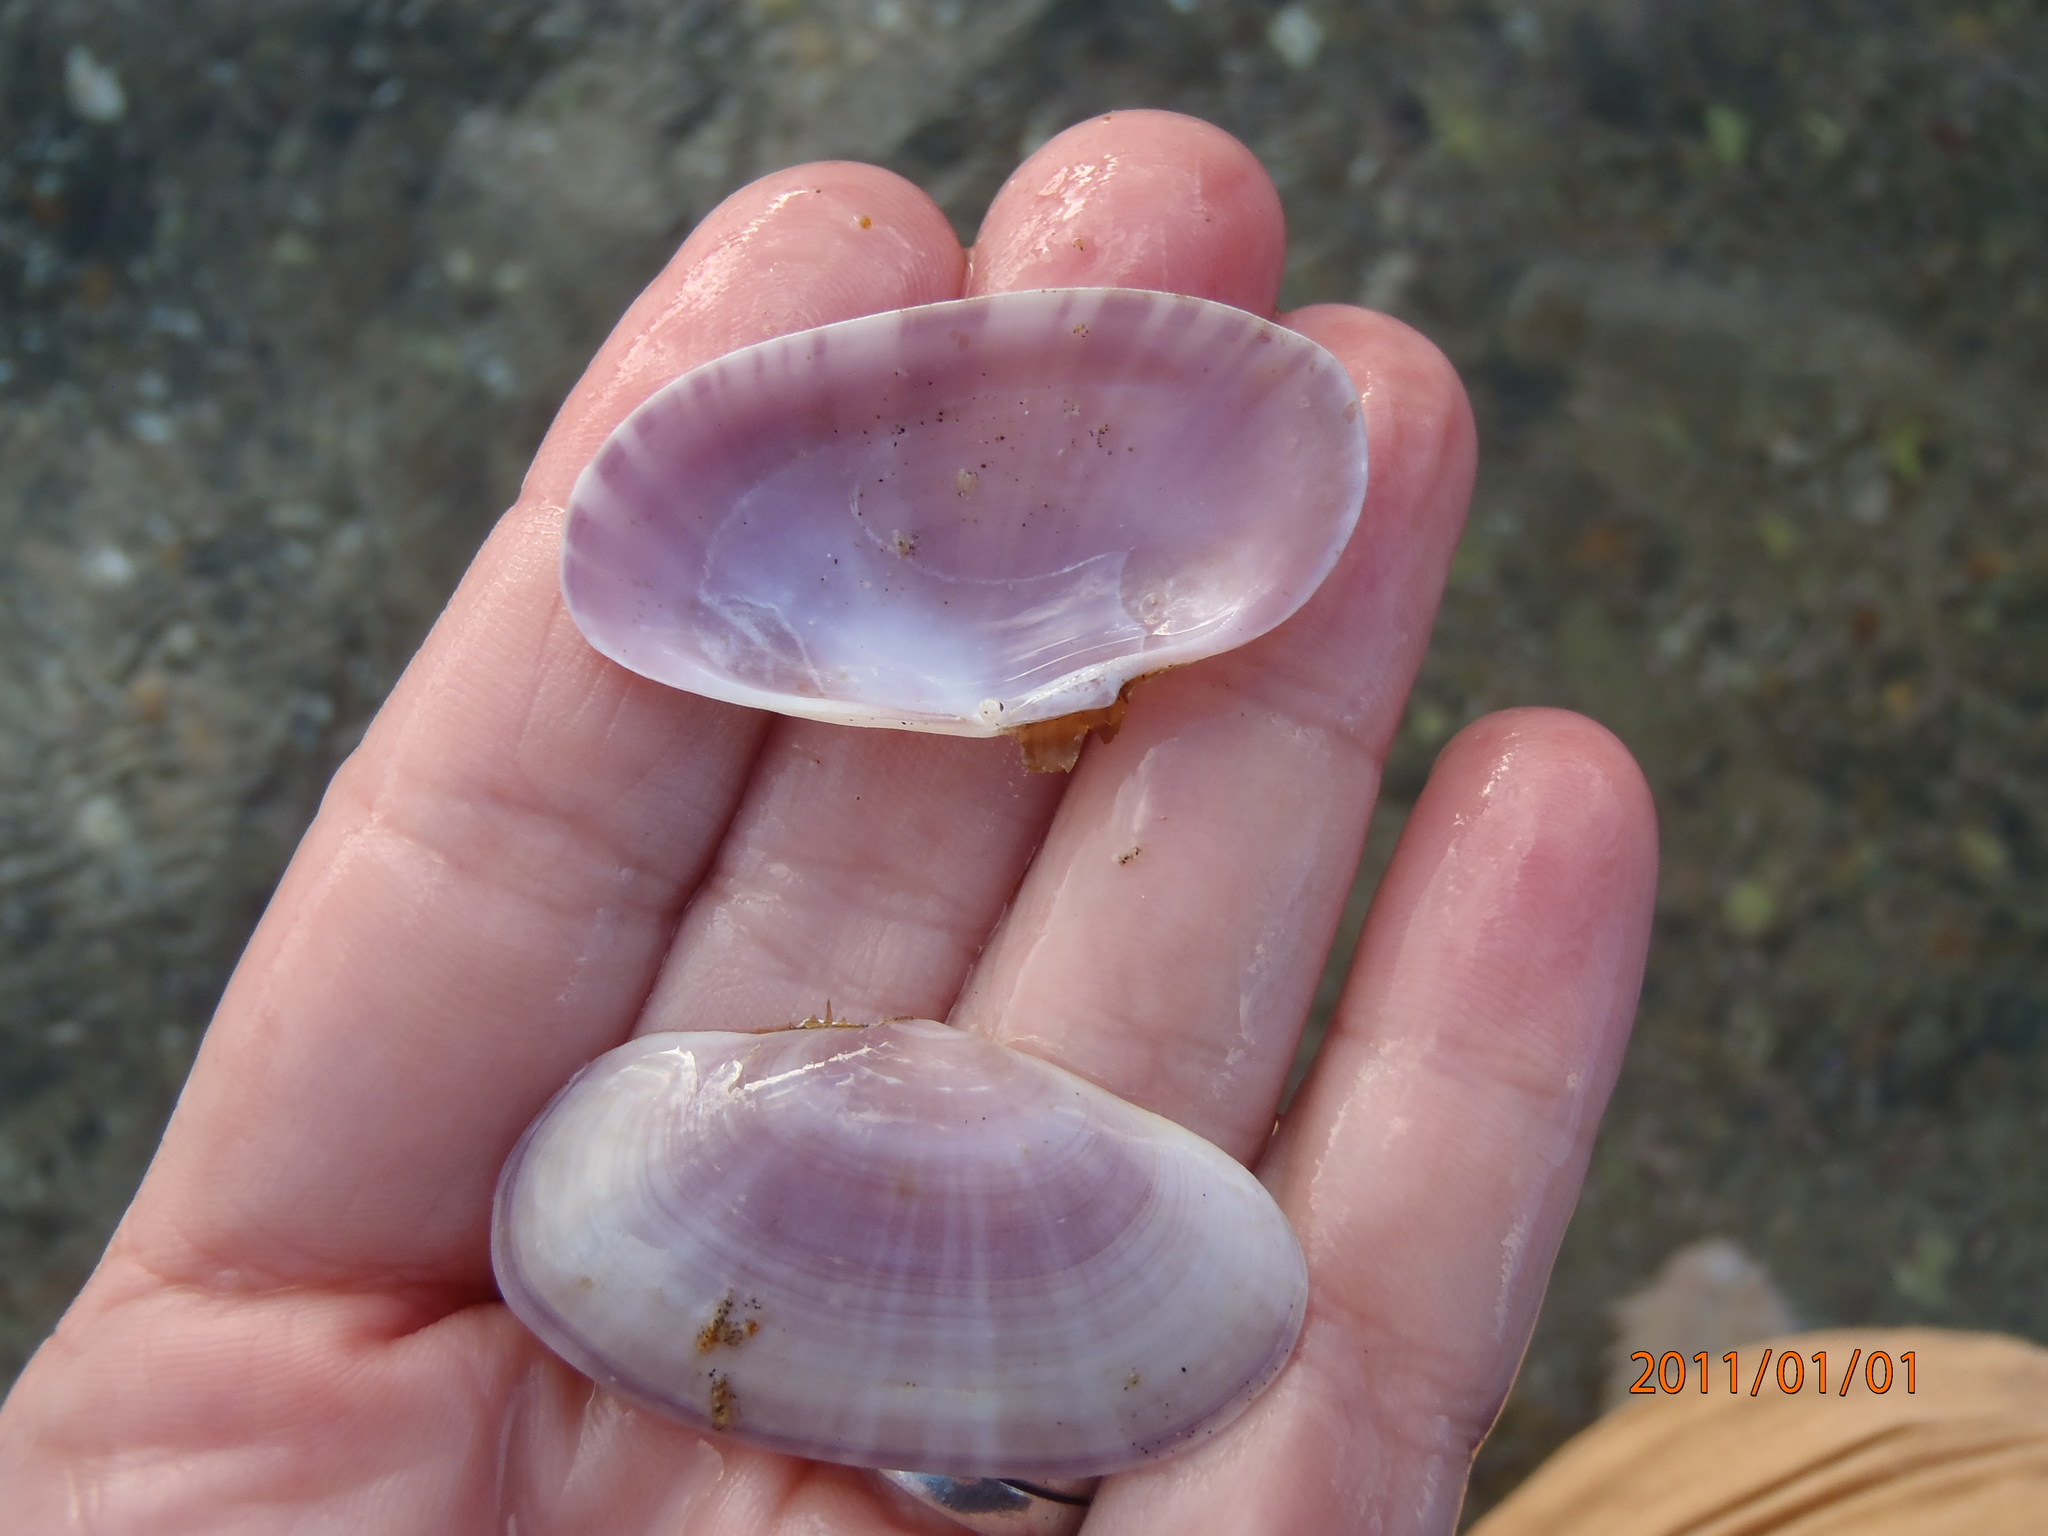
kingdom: Animalia
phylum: Mollusca
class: Bivalvia
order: Cardiida
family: Psammobiidae
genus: Gari
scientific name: Gari stangeri
